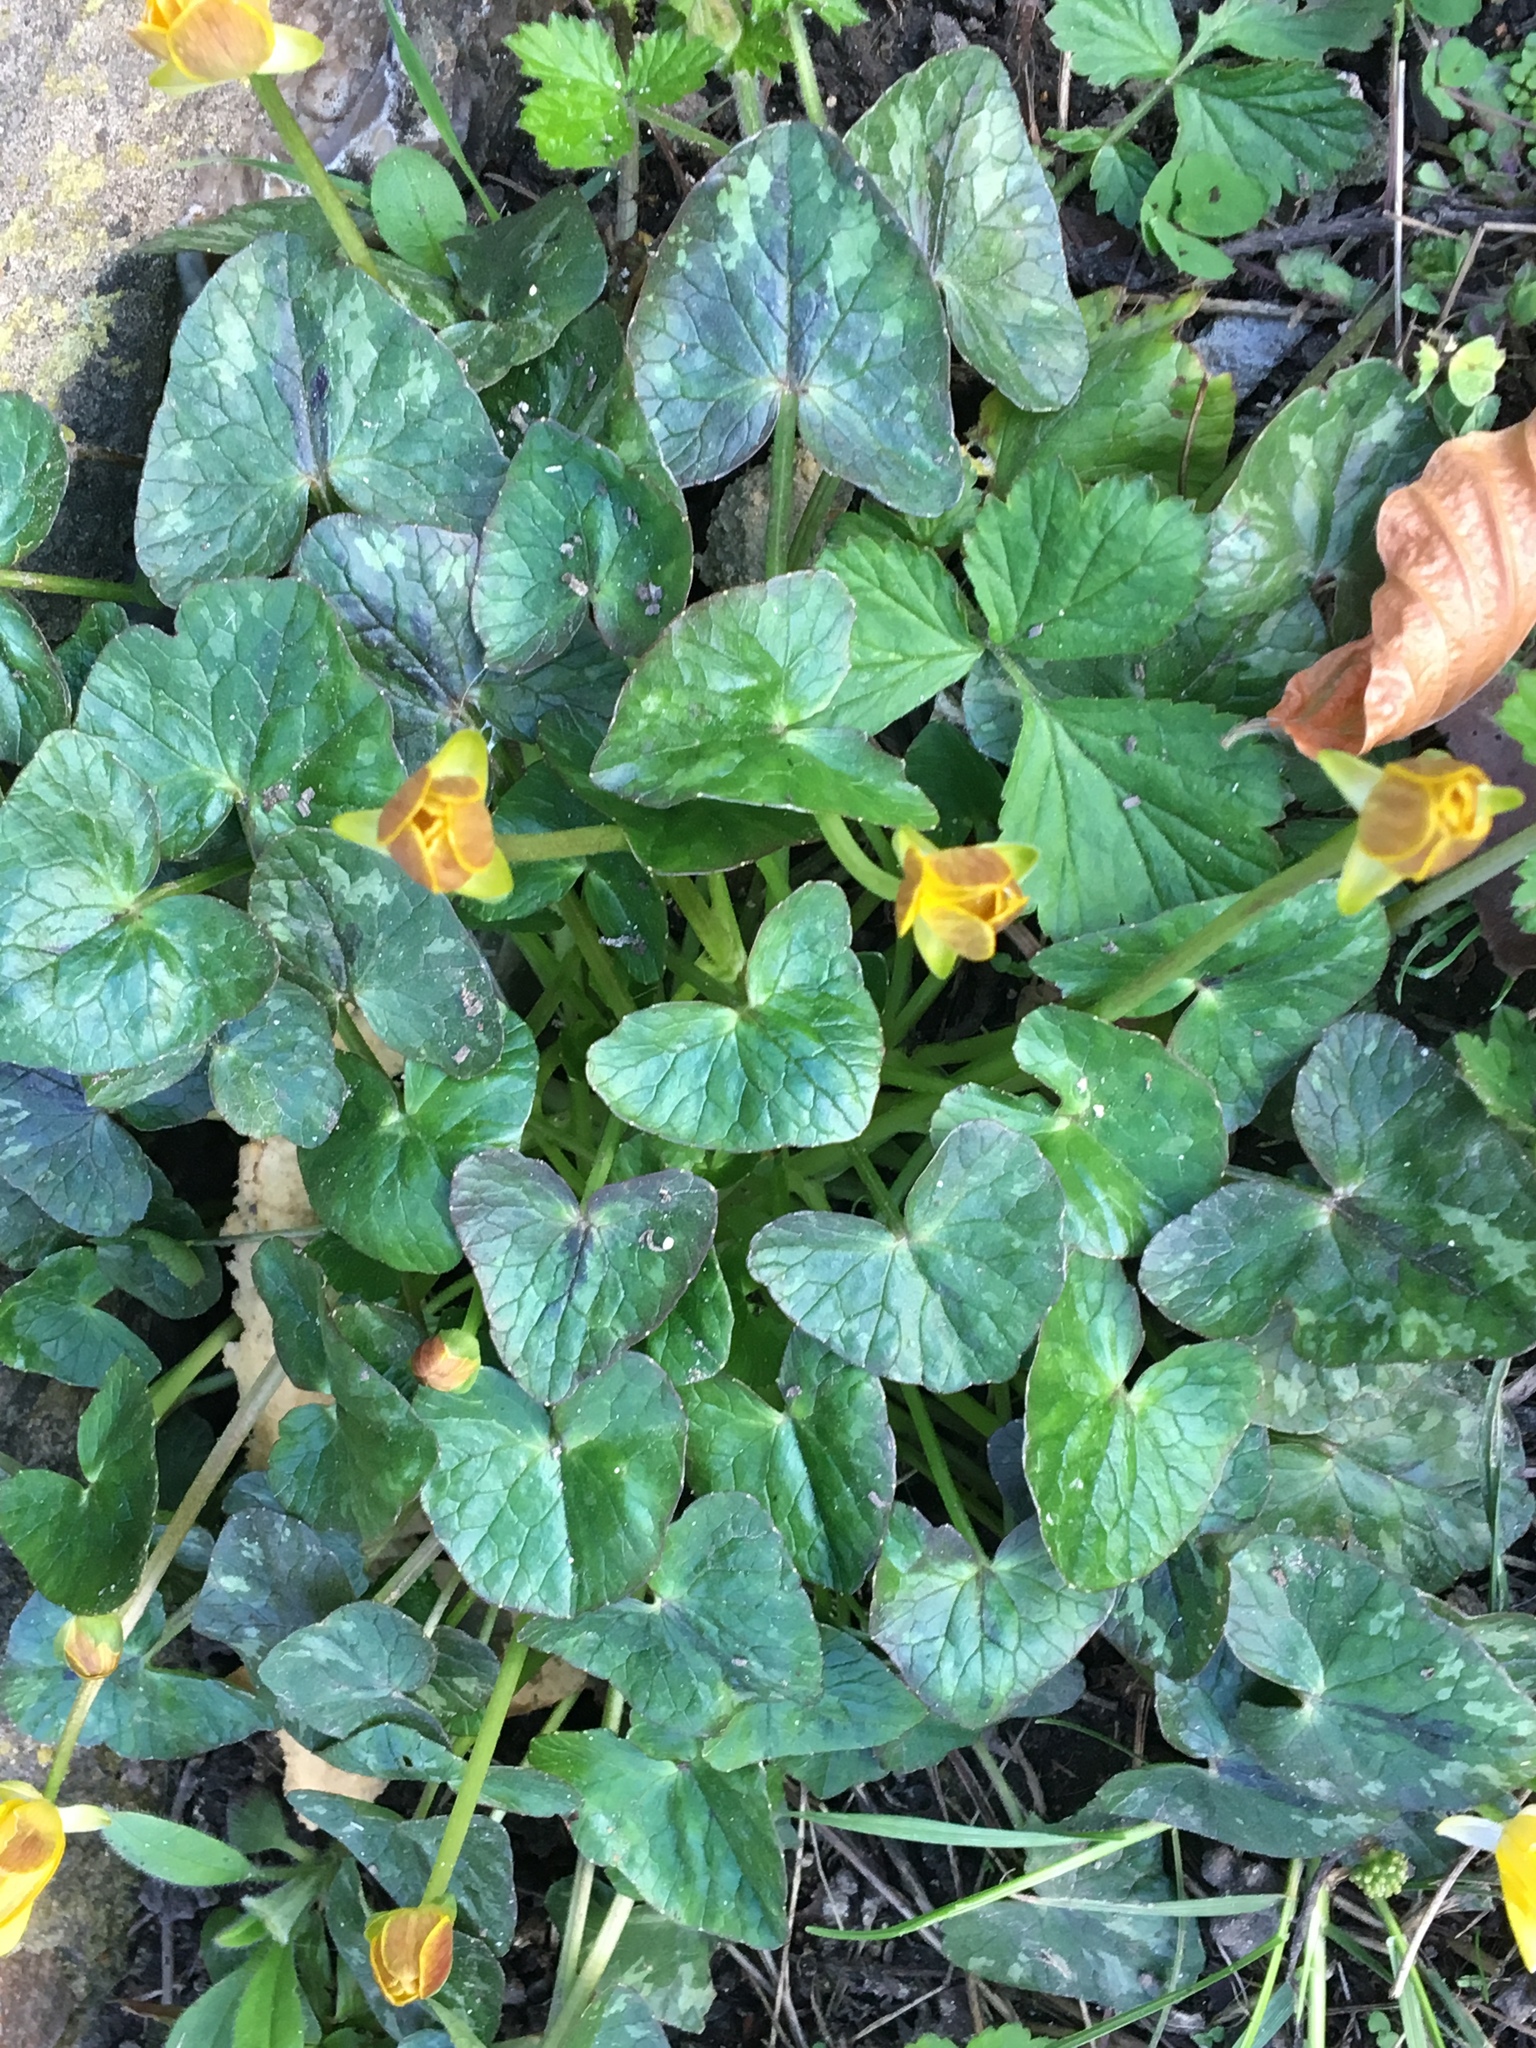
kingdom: Plantae
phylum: Tracheophyta
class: Magnoliopsida
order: Ranunculales
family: Ranunculaceae
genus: Ficaria
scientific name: Ficaria verna
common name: Lesser celandine
